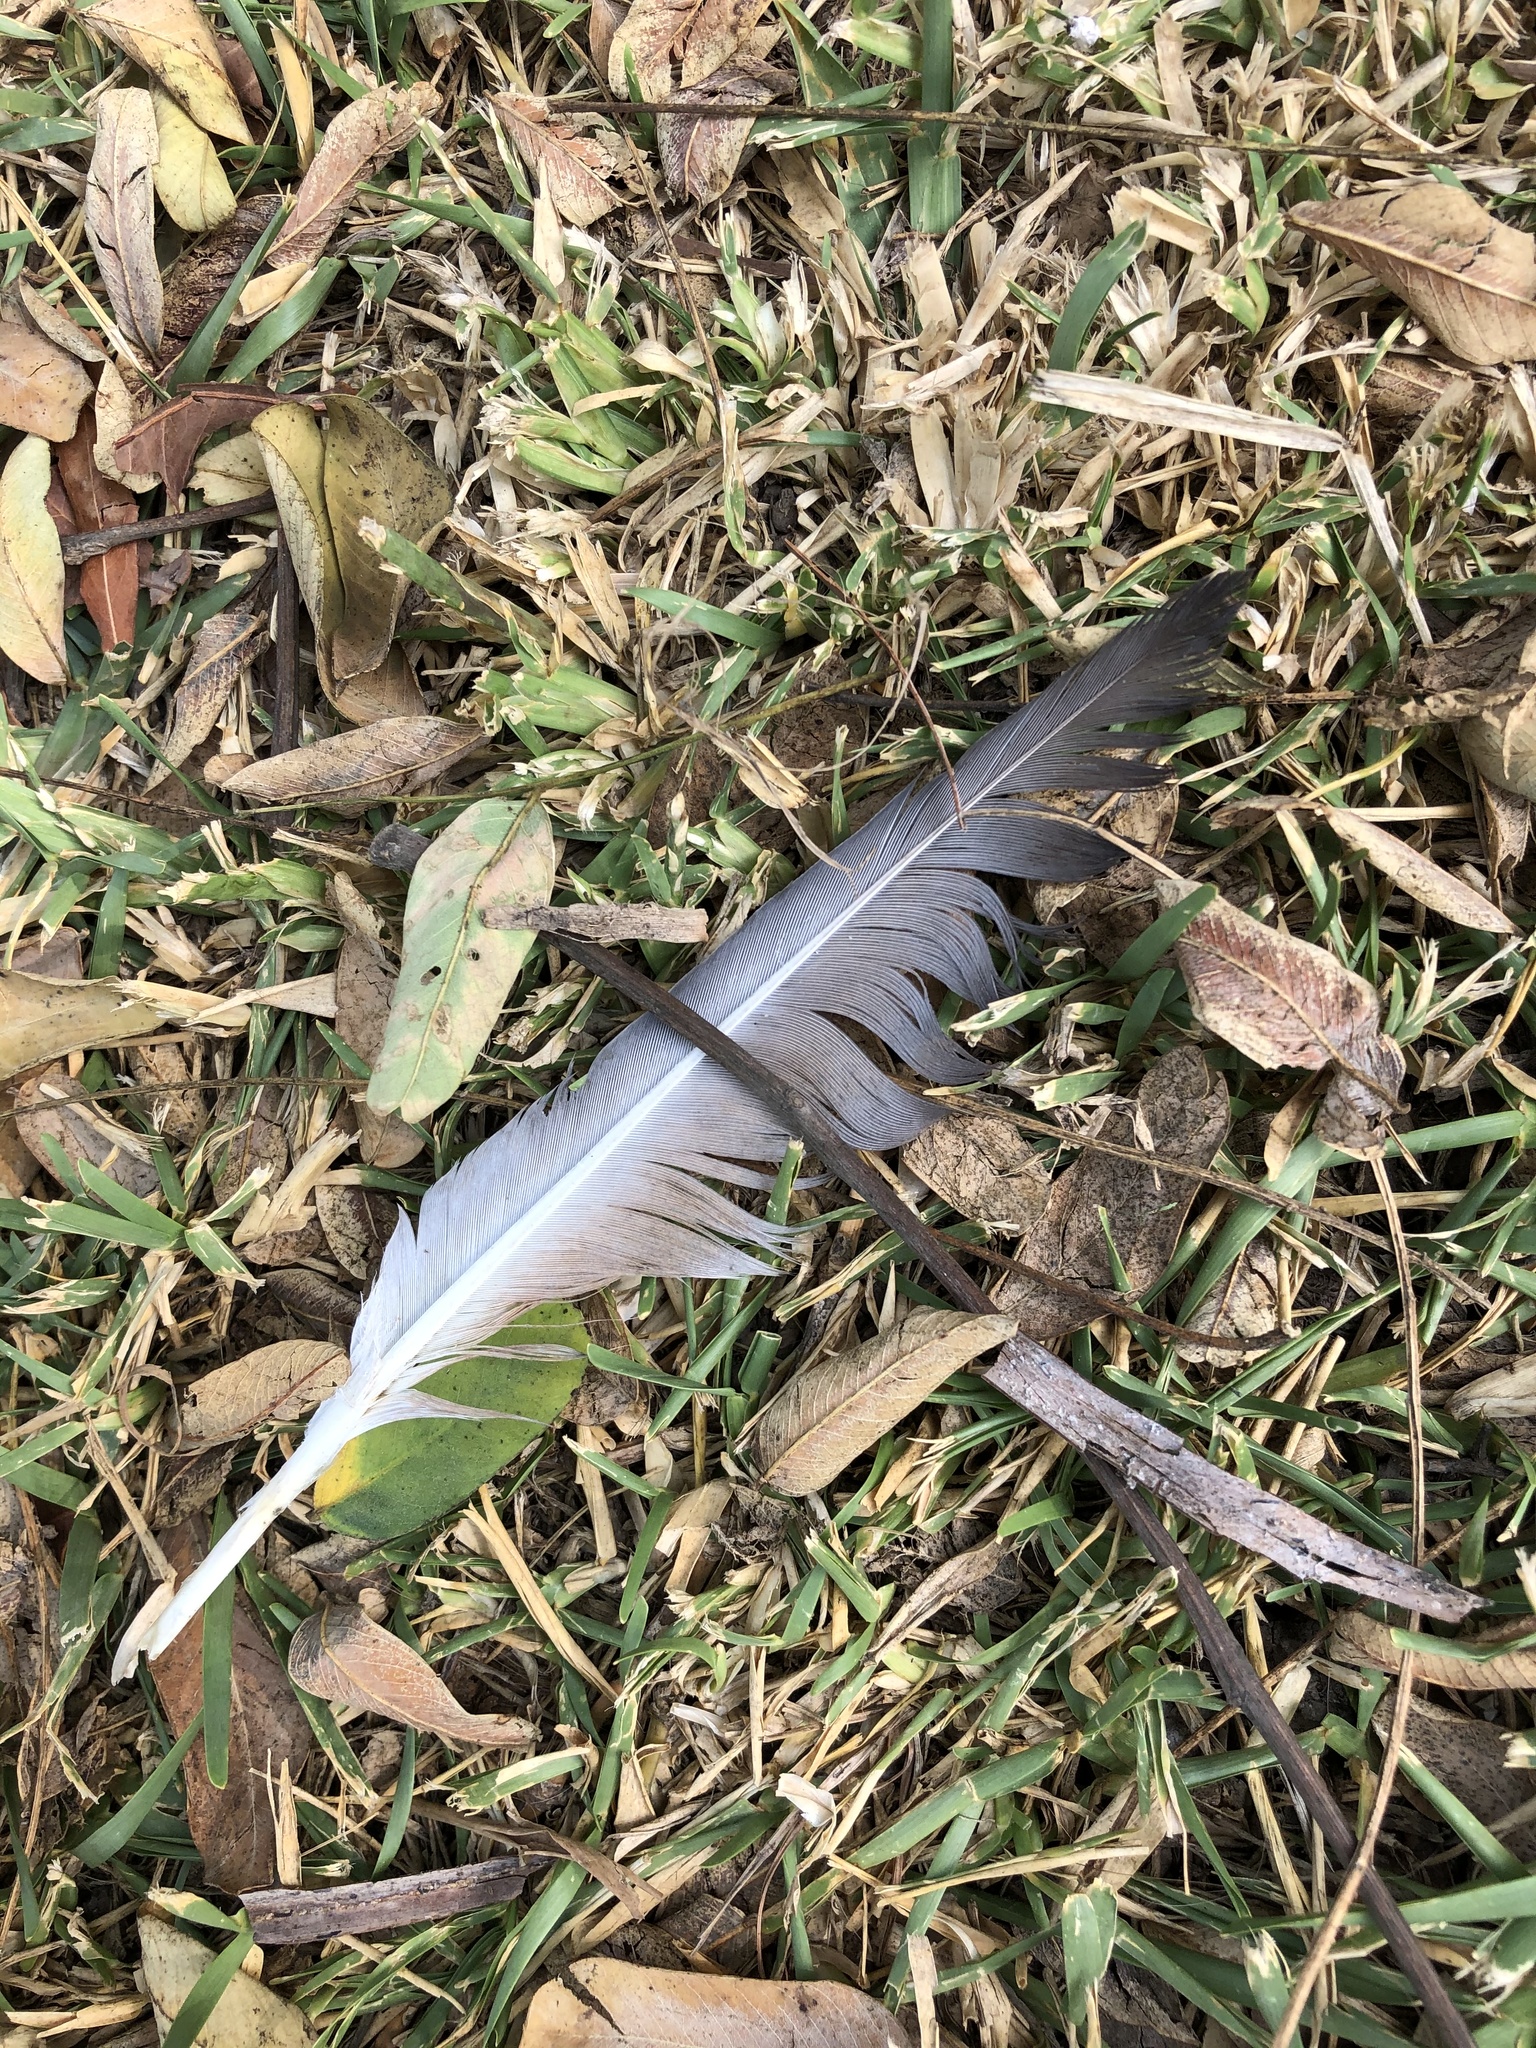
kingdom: Animalia
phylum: Chordata
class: Aves
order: Columbiformes
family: Columbidae
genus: Columba
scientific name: Columba livia
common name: Rock pigeon
